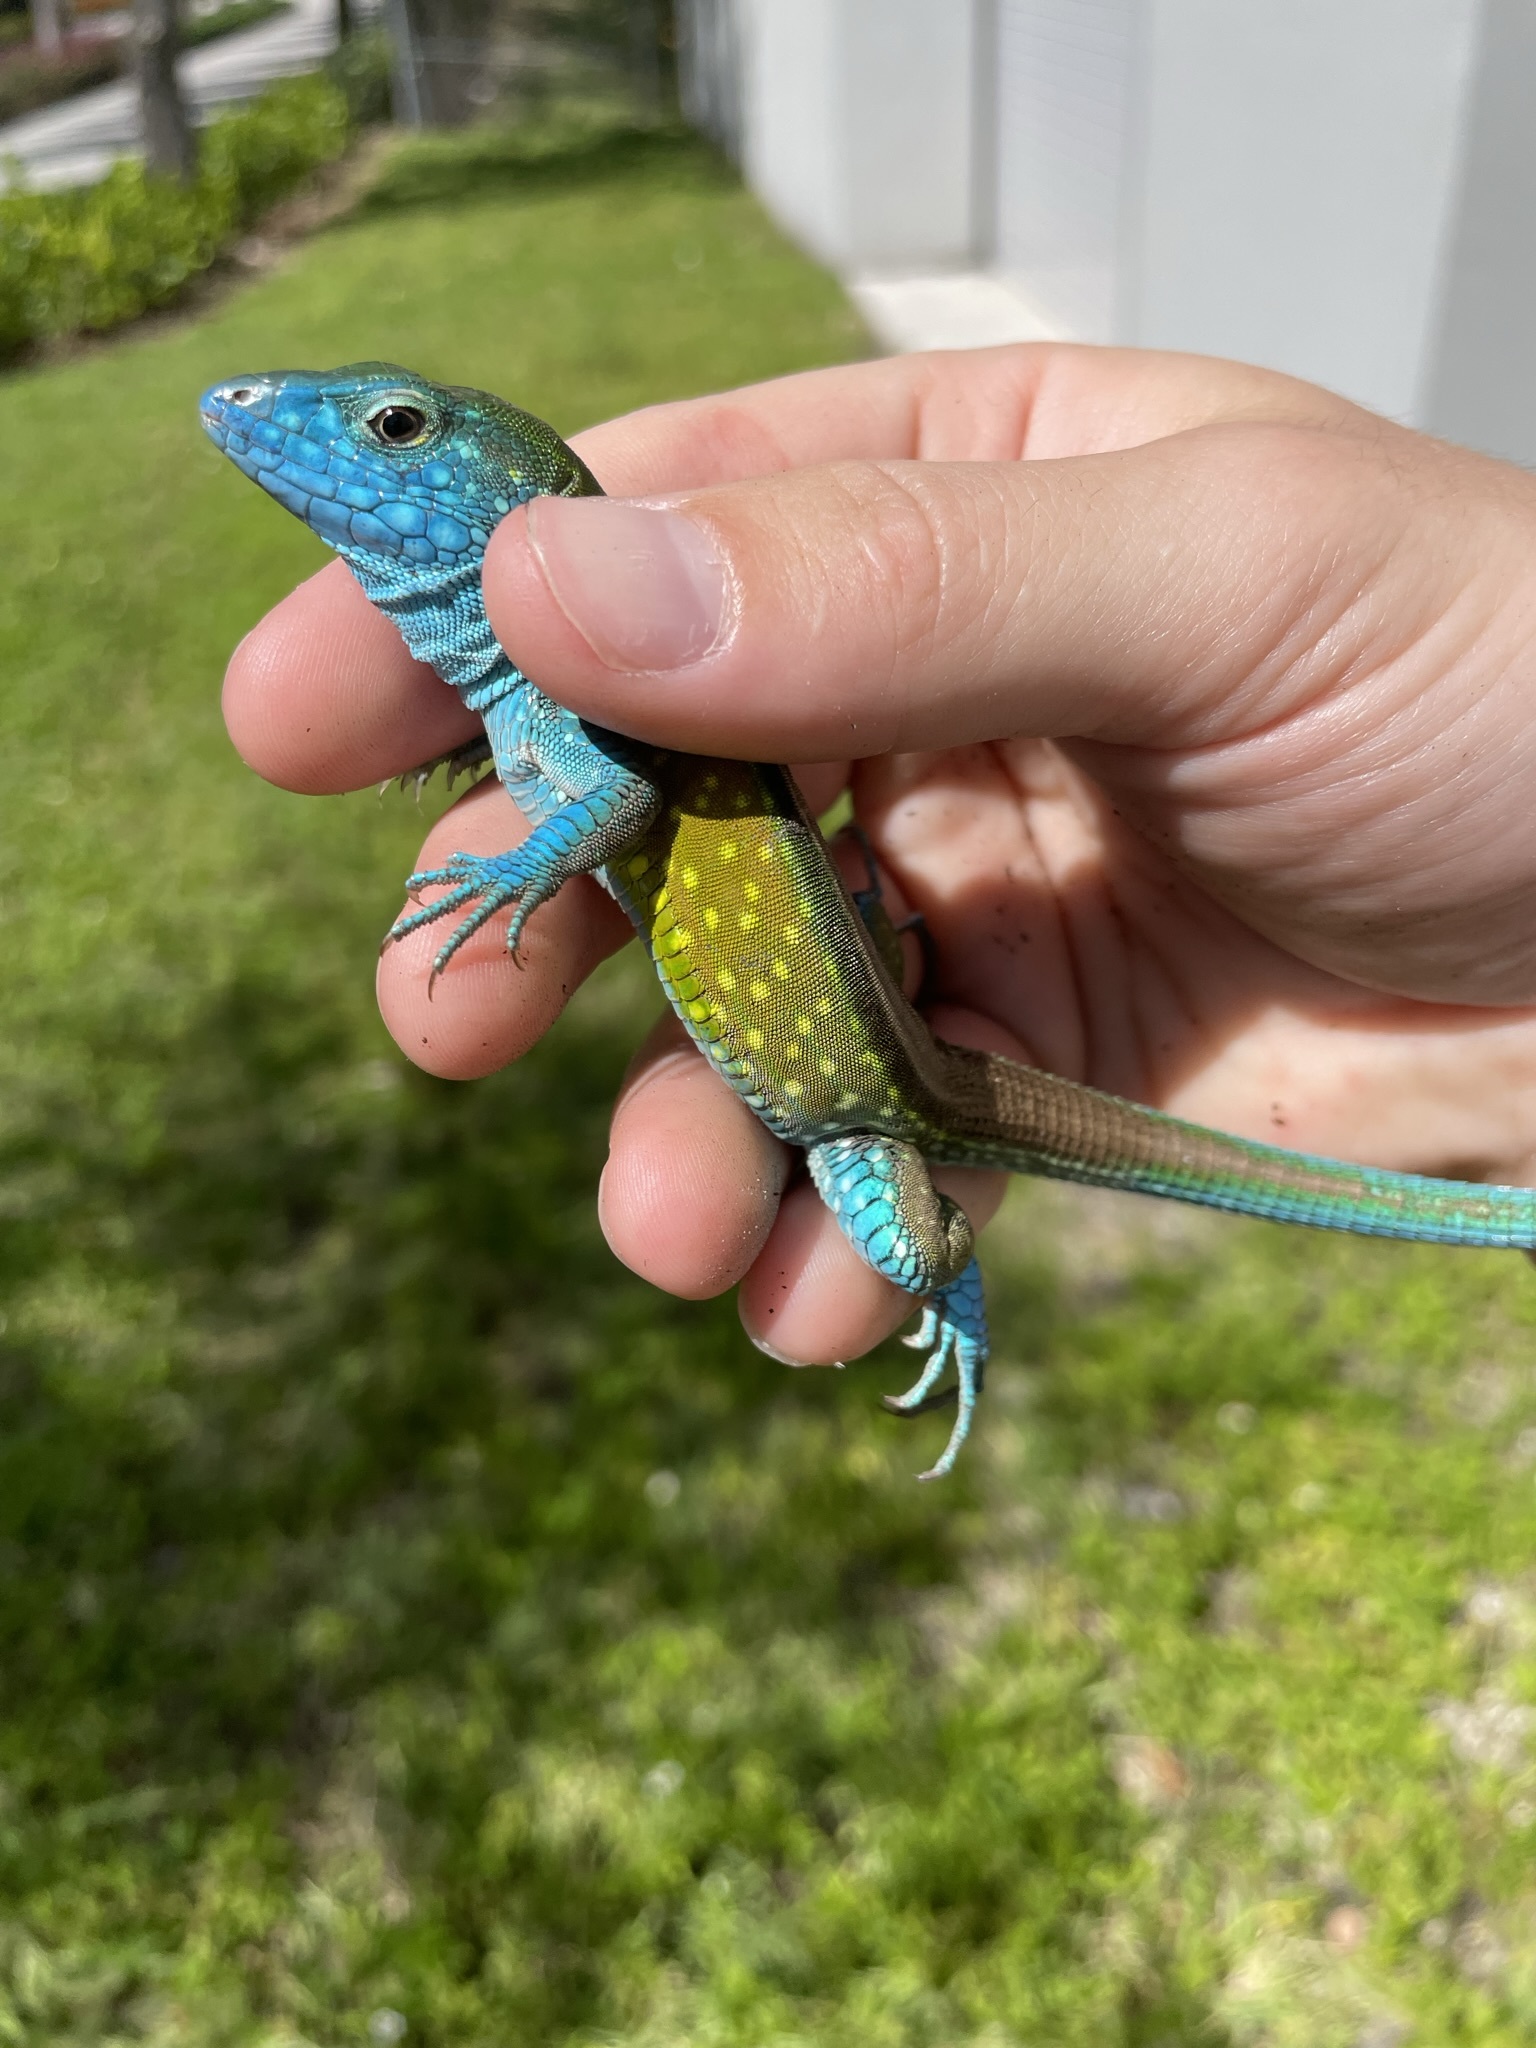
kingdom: Animalia
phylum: Chordata
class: Squamata
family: Teiidae
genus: Cnemidophorus
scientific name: Cnemidophorus lemniscatus
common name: Rainbow whiptail
